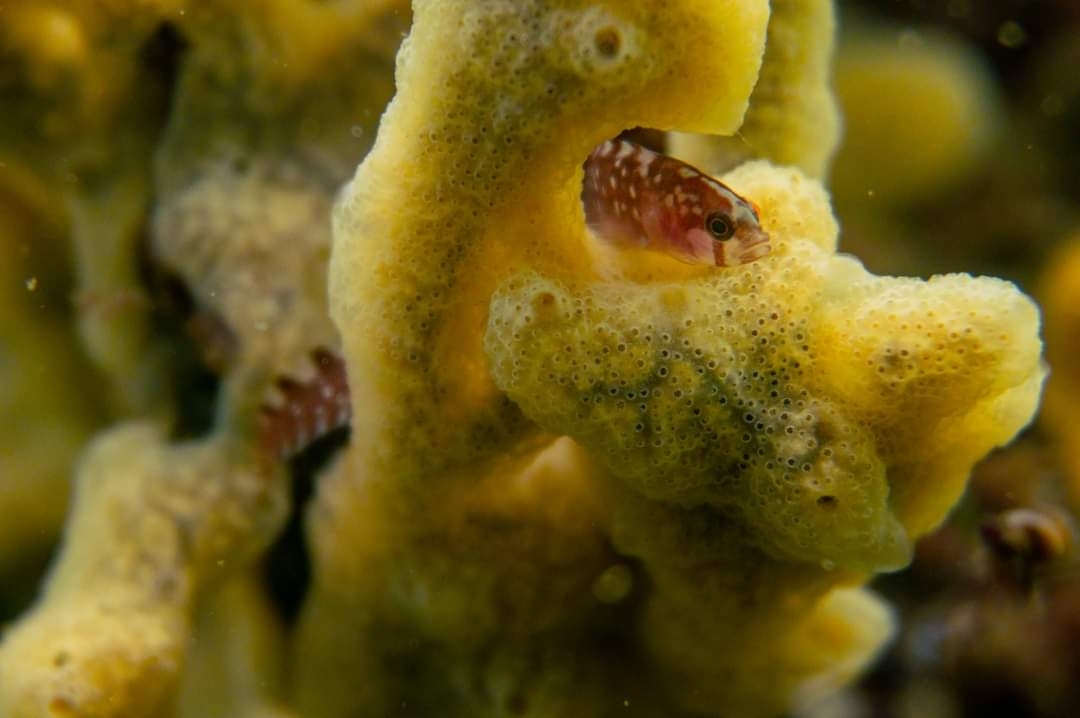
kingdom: Animalia
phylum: Chordata
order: Perciformes
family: Pholidae
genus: Pholis
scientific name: Pholis gunnellus
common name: Butterfish
